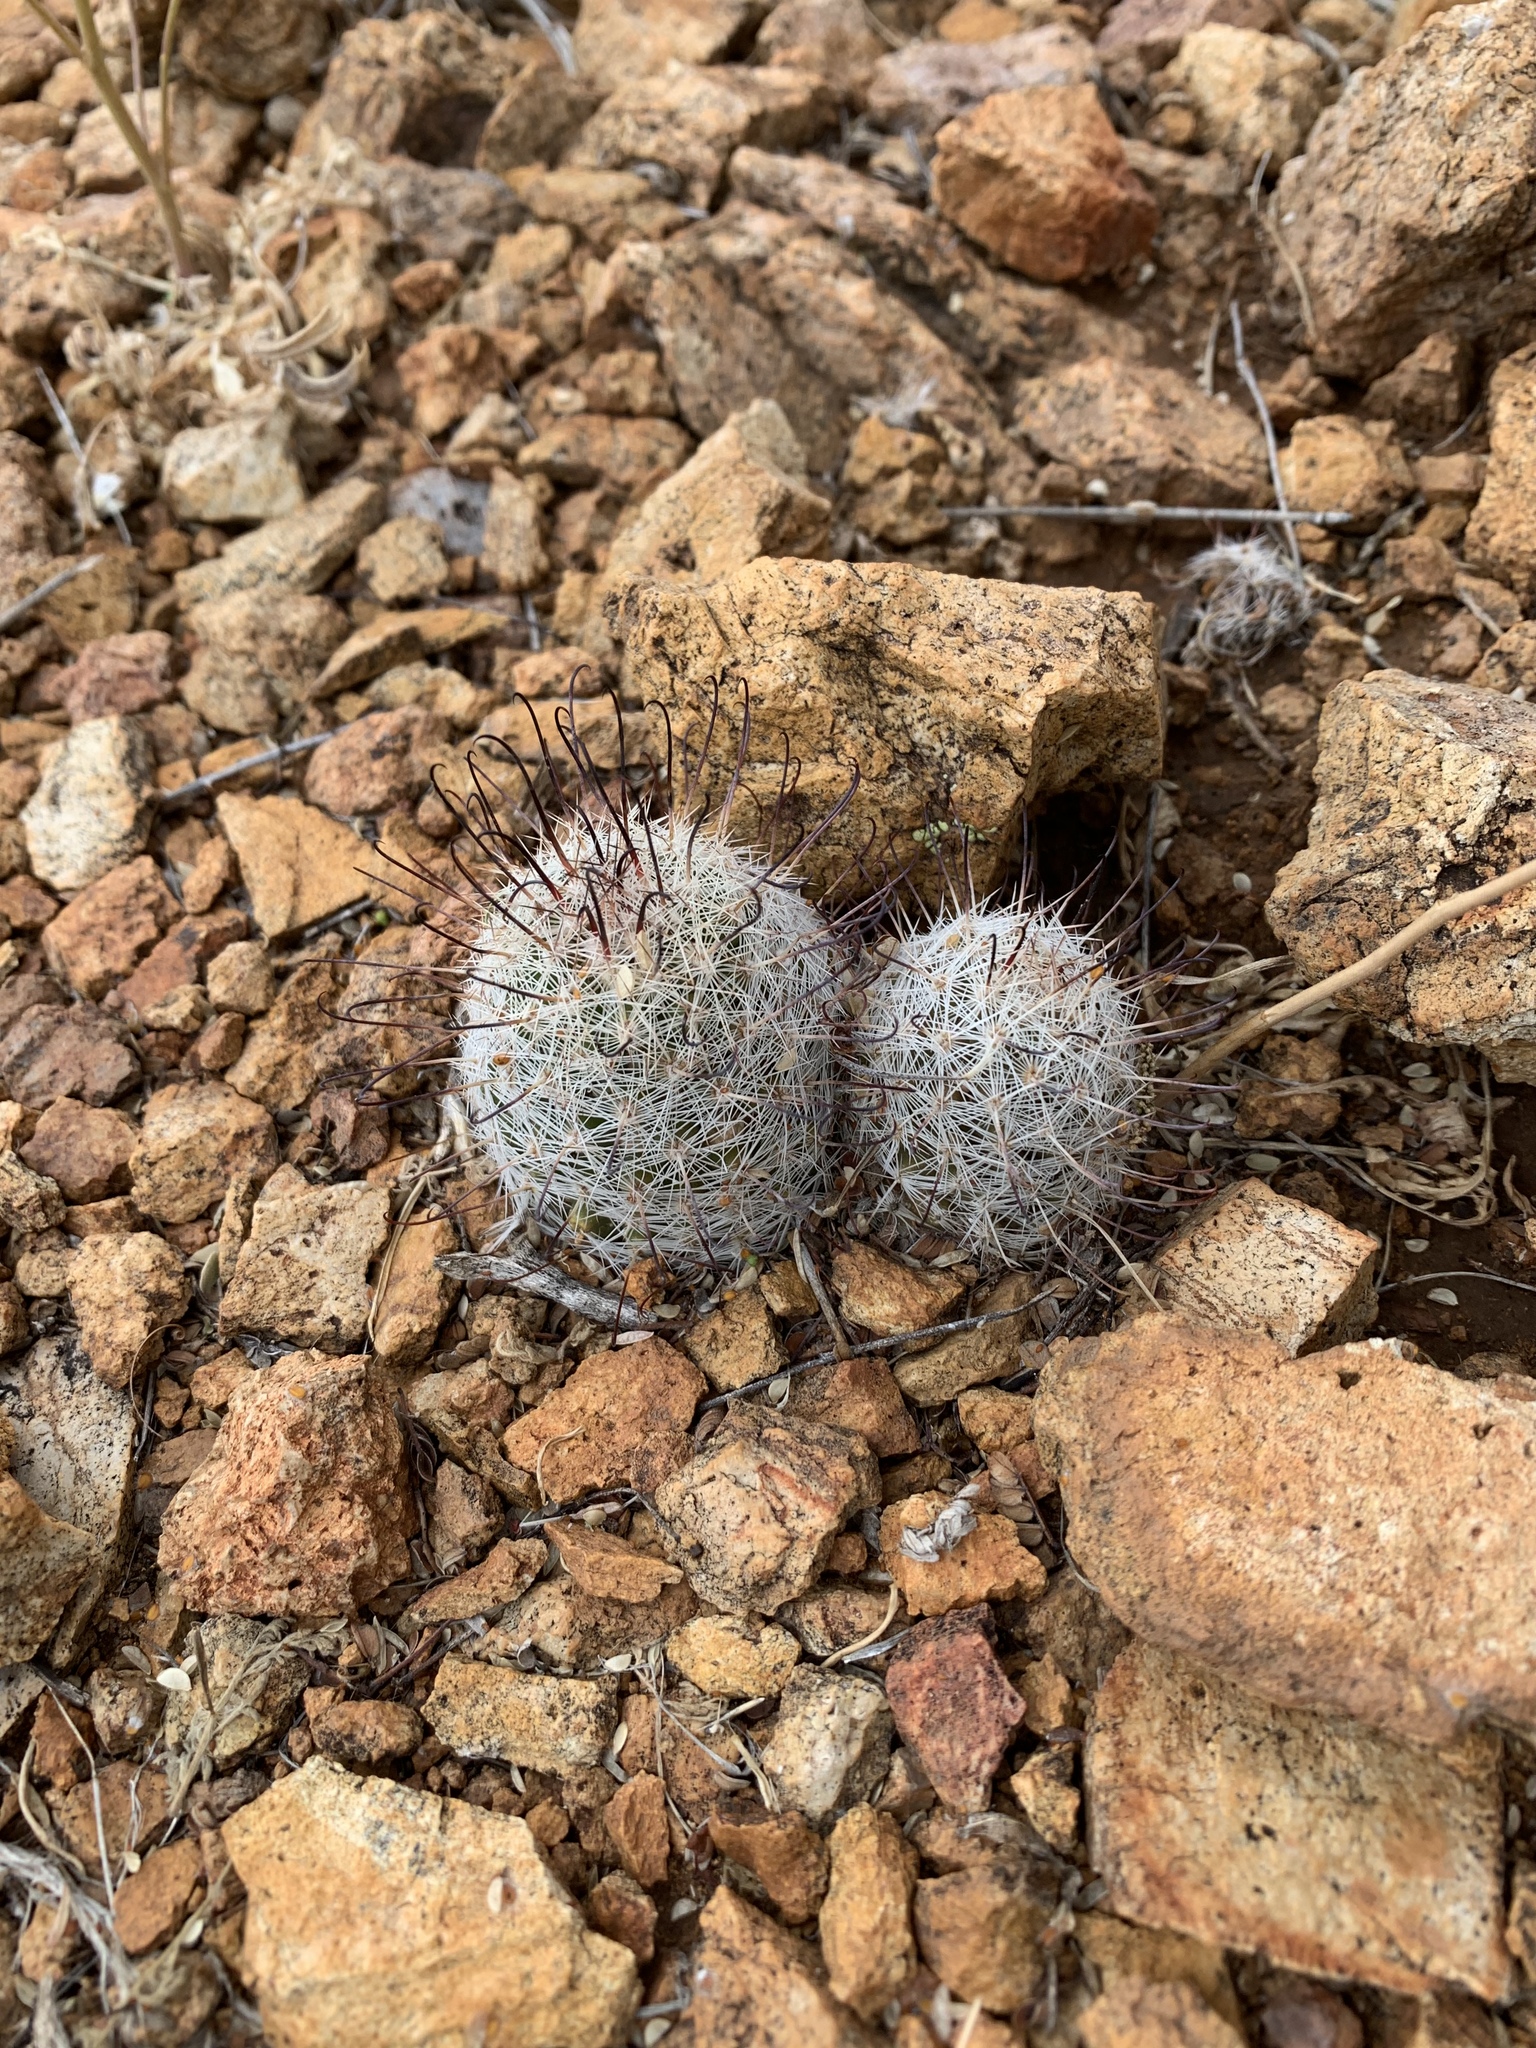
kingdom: Plantae
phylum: Tracheophyta
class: Magnoliopsida
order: Caryophyllales
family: Cactaceae
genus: Cochemiea
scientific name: Cochemiea grahamii
